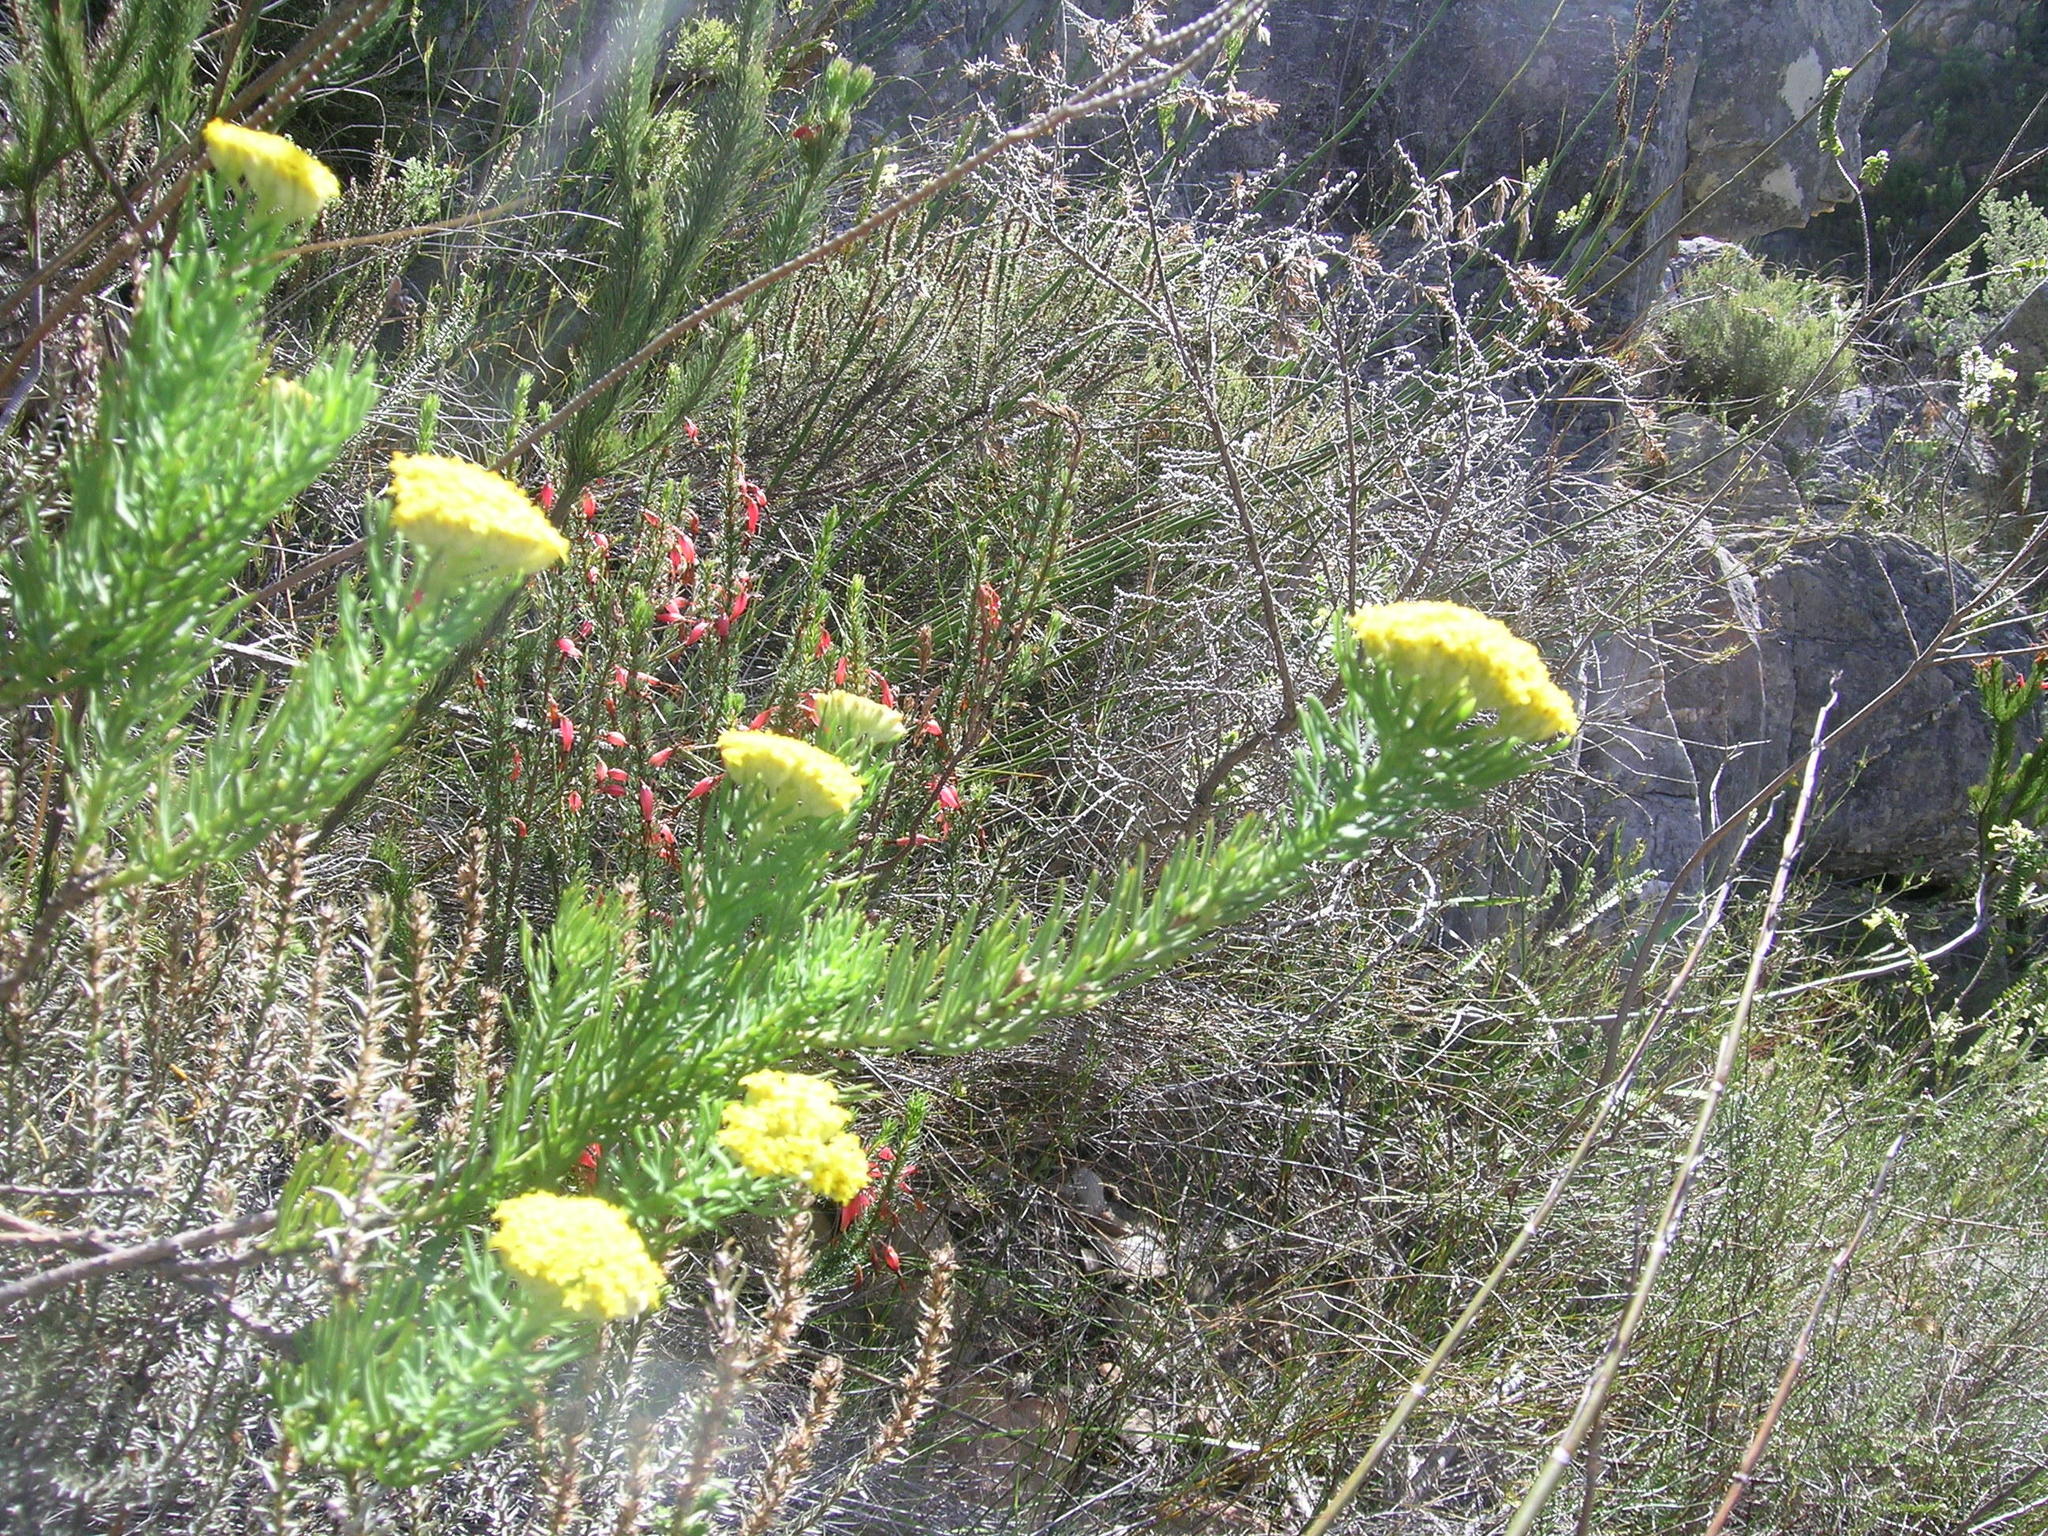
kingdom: Plantae
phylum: Tracheophyta
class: Magnoliopsida
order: Asterales
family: Asteraceae
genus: Hymenolepis
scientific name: Hymenolepis incisa
